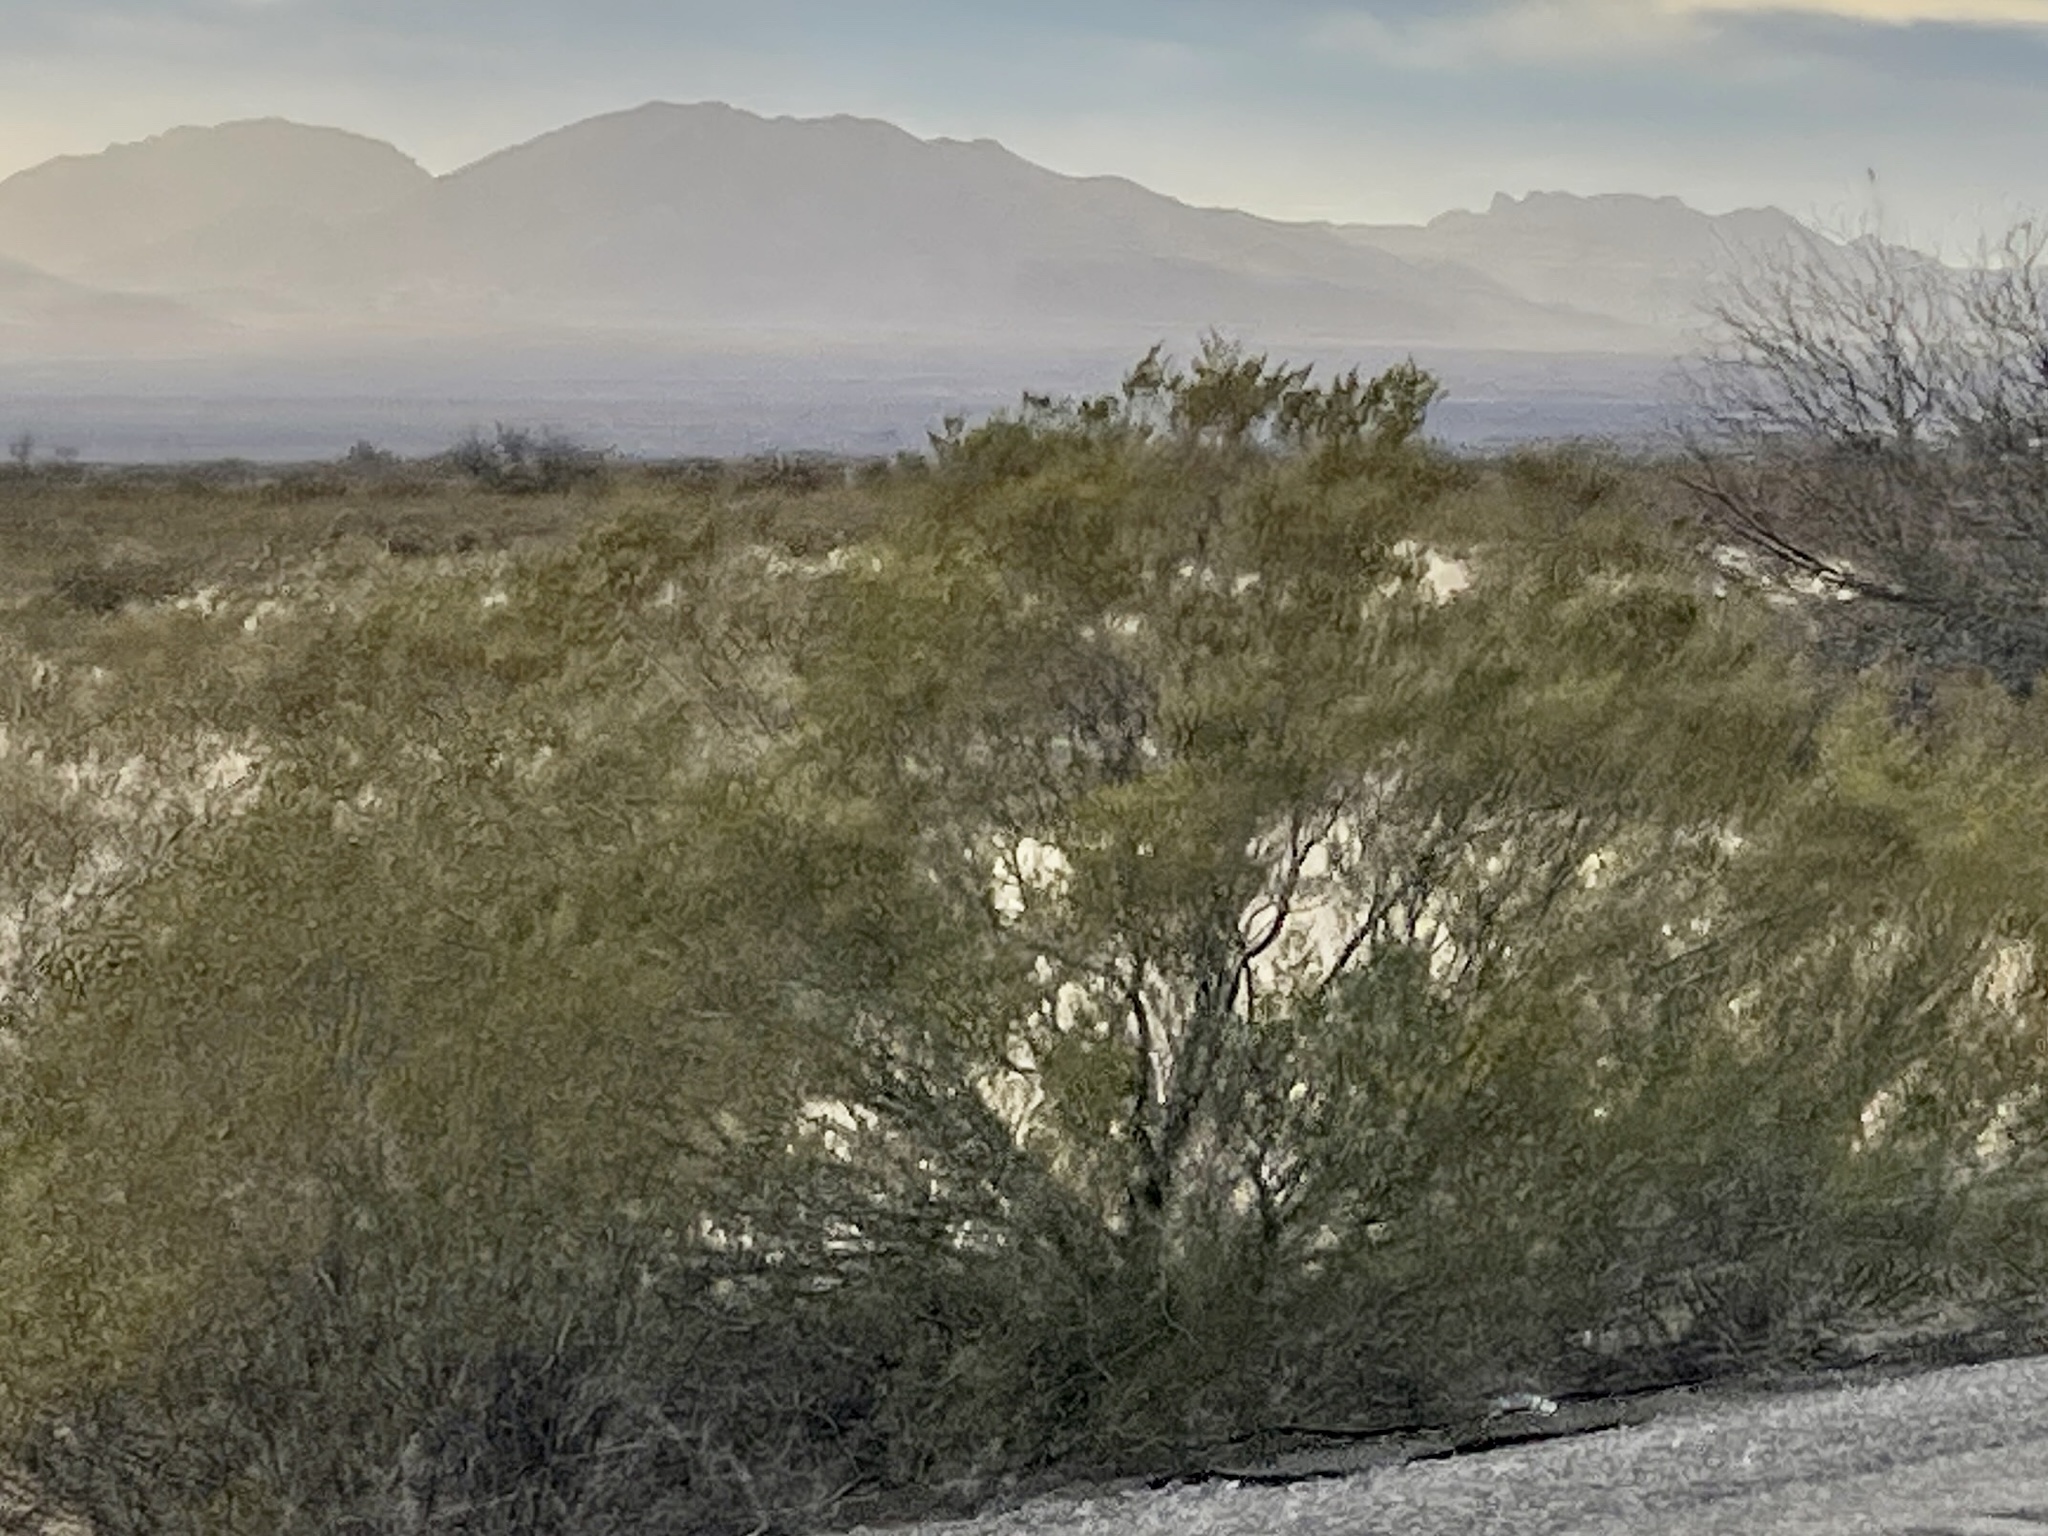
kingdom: Plantae
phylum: Tracheophyta
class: Magnoliopsida
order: Zygophyllales
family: Zygophyllaceae
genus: Larrea
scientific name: Larrea tridentata
